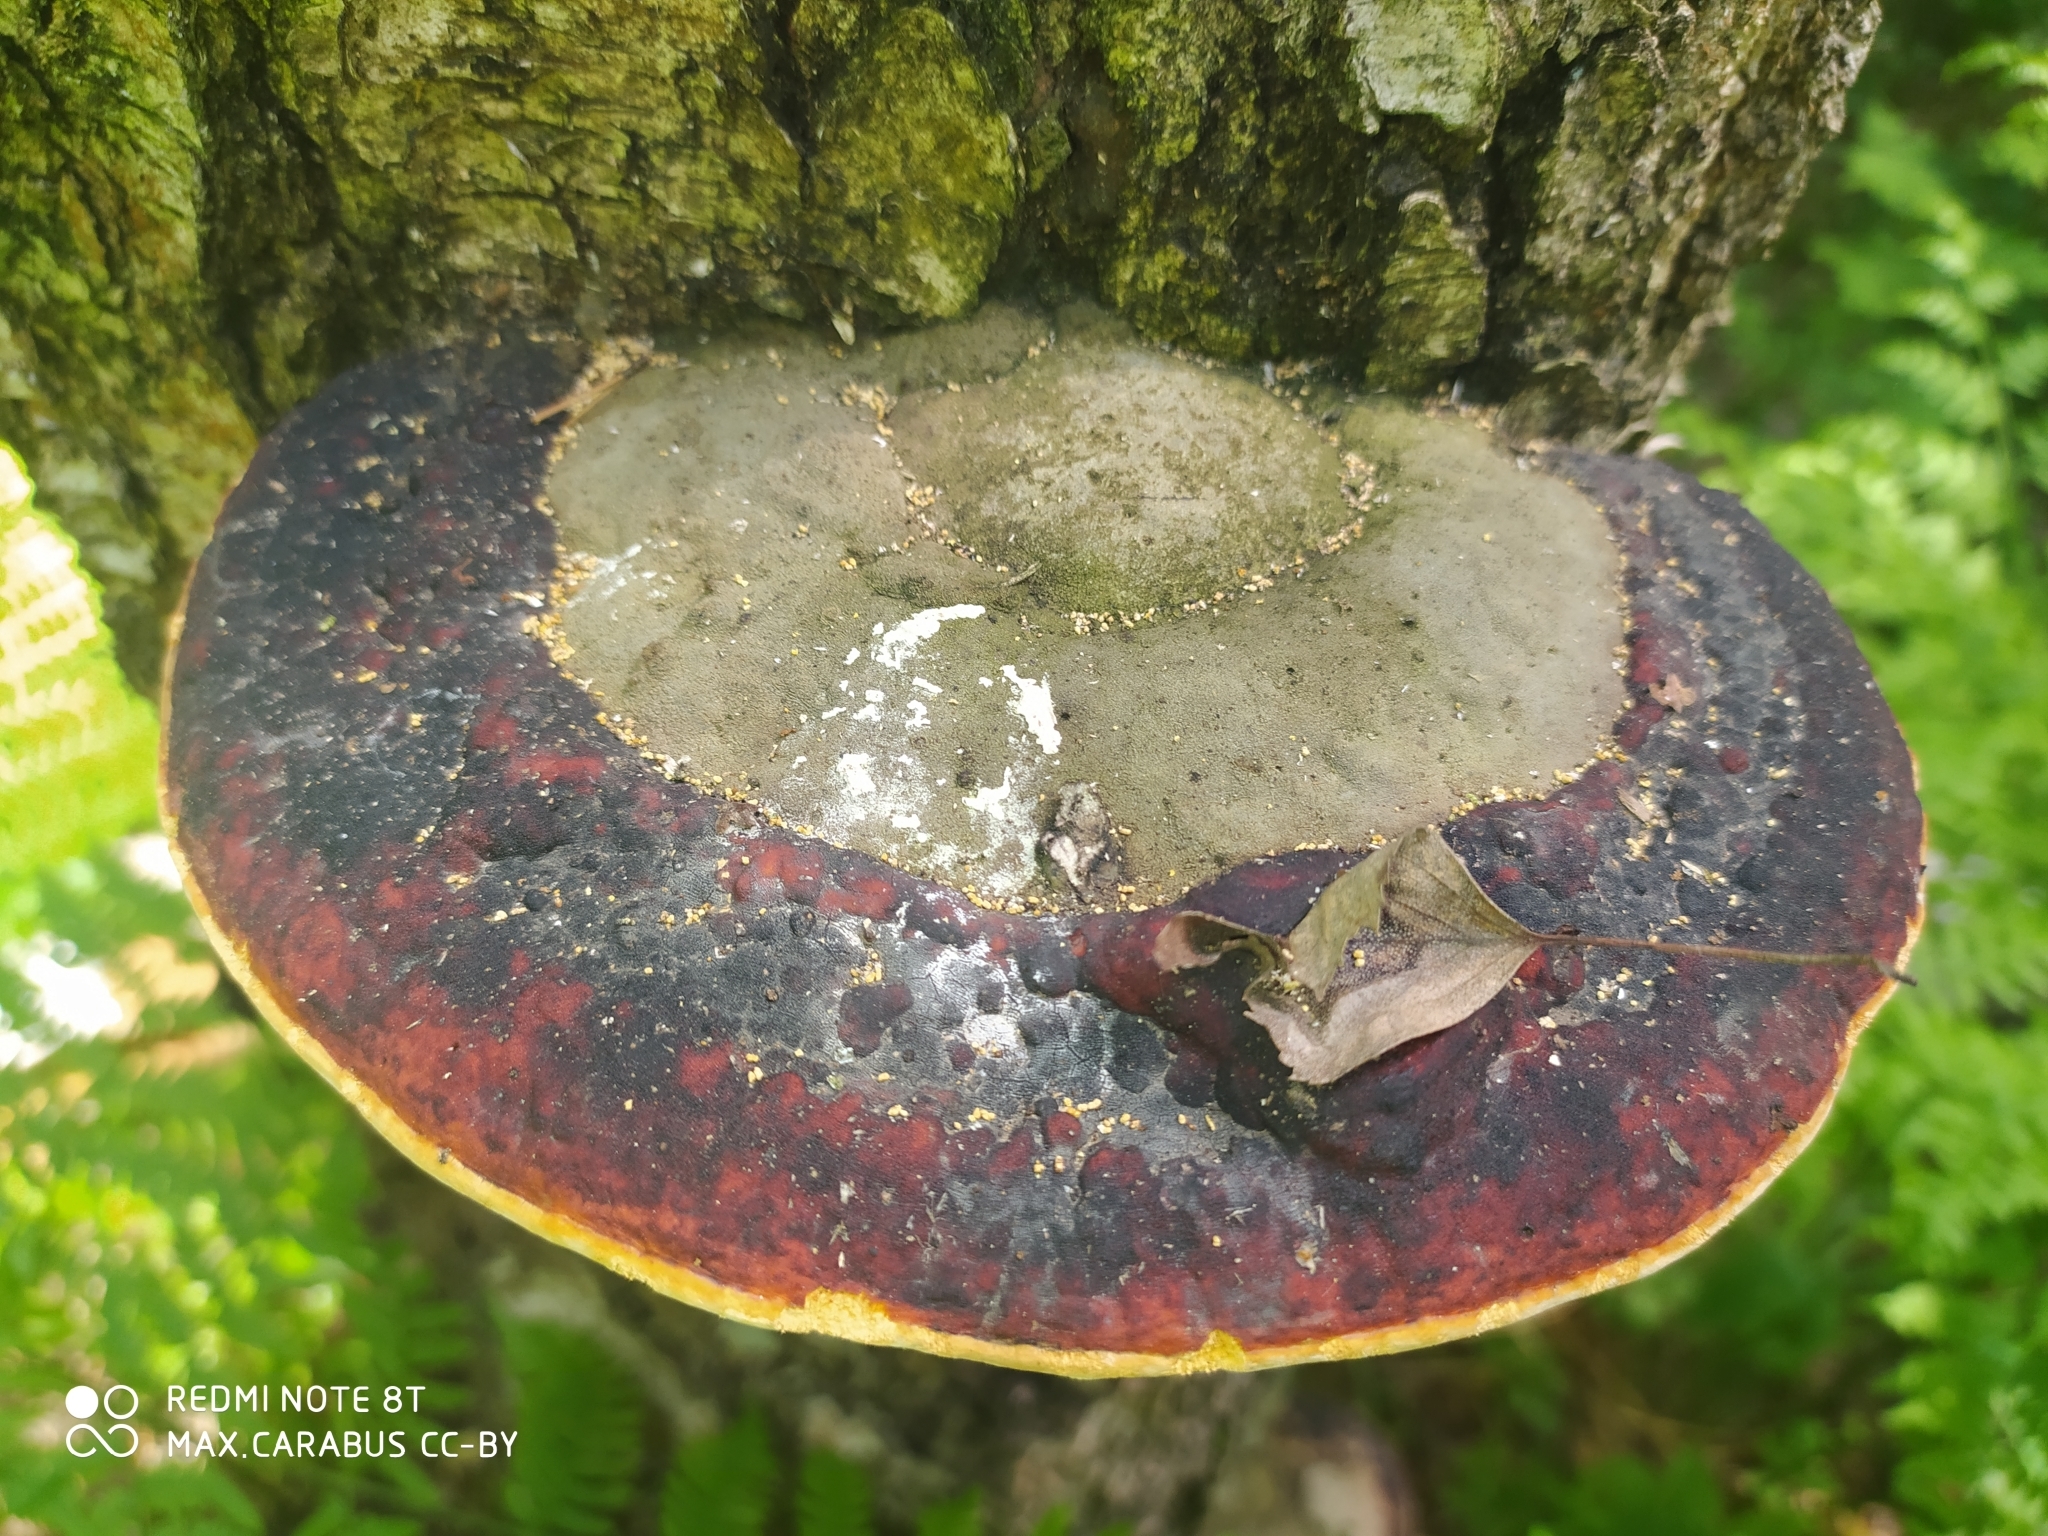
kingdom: Fungi
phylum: Basidiomycota
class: Agaricomycetes
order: Polyporales
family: Fomitopsidaceae
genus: Fomitopsis
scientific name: Fomitopsis pinicola
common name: Red-belted bracket
